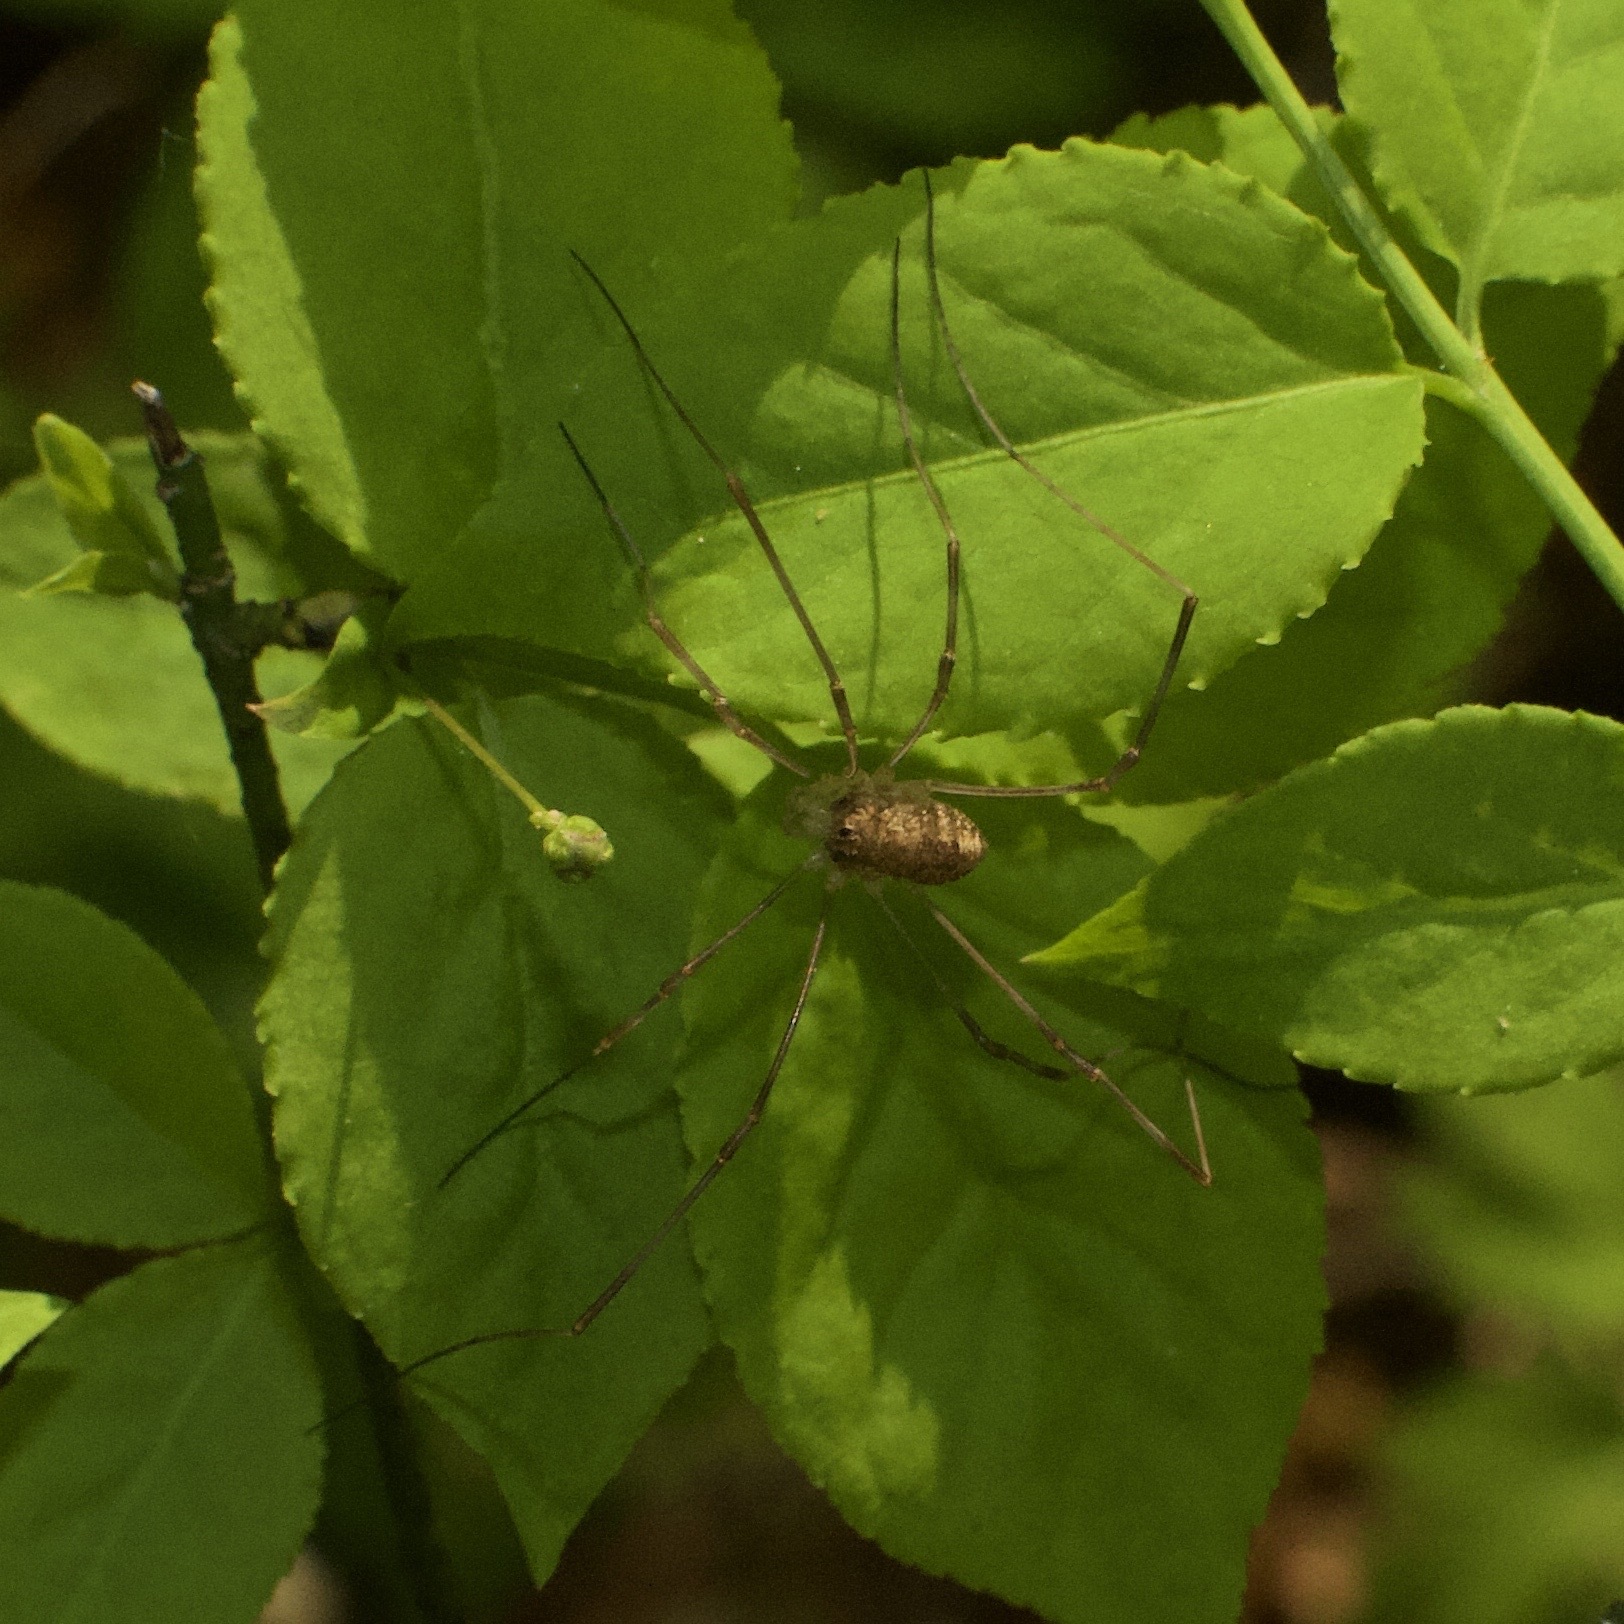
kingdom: Animalia
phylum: Arthropoda
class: Arachnida
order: Opiliones
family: Phalangiidae
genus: Rilaena
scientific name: Rilaena triangularis
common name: Spring harvestman
